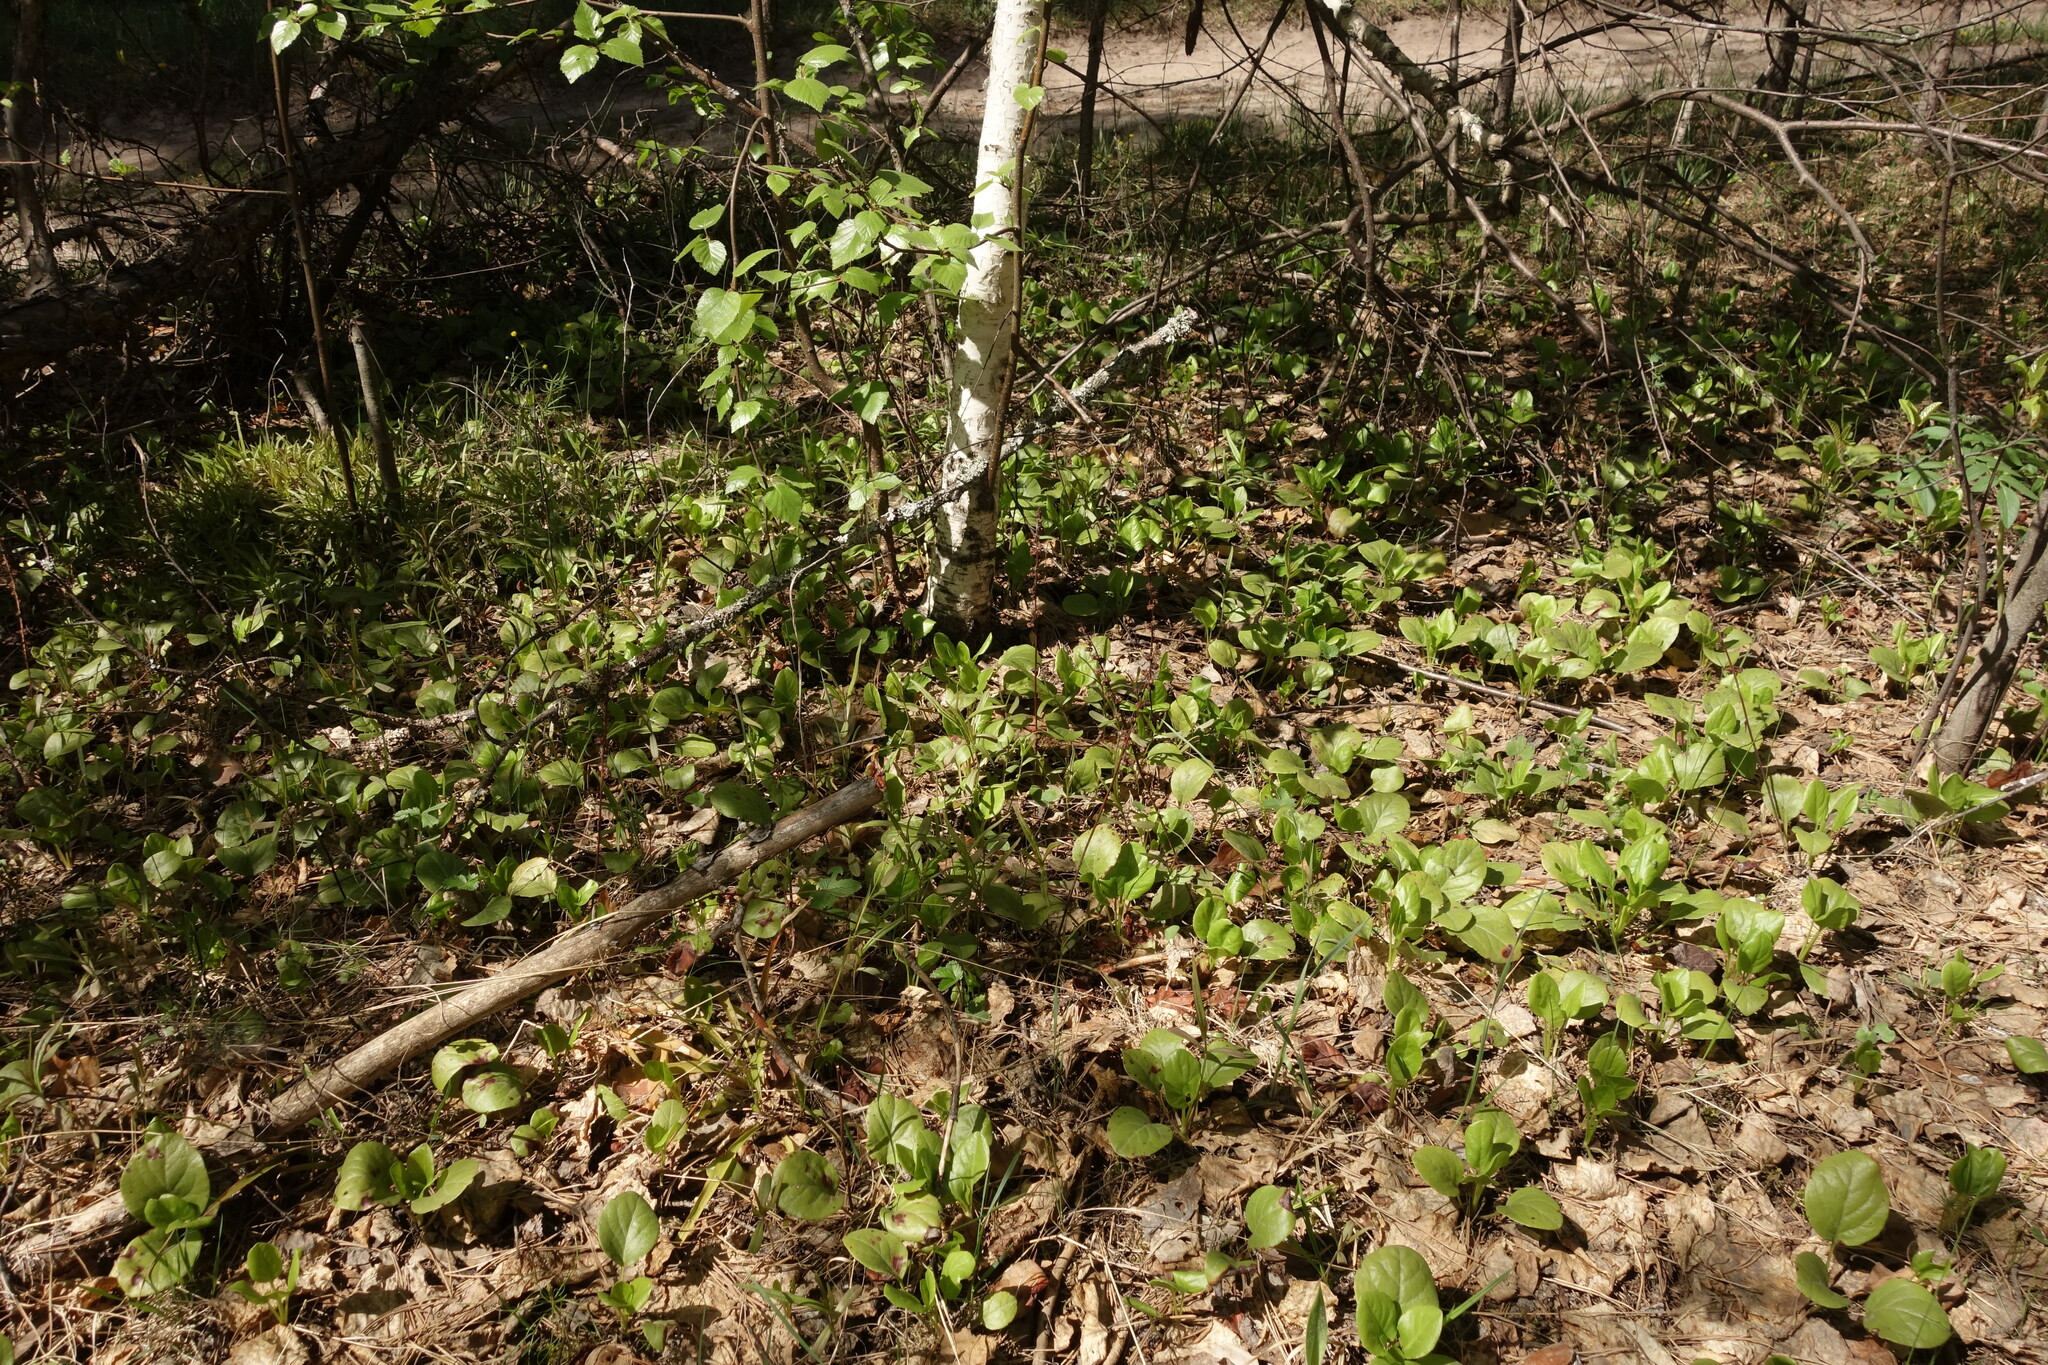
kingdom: Plantae
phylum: Tracheophyta
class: Magnoliopsida
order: Ericales
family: Ericaceae
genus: Pyrola
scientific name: Pyrola rotundifolia
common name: Round-leaved wintergreen
